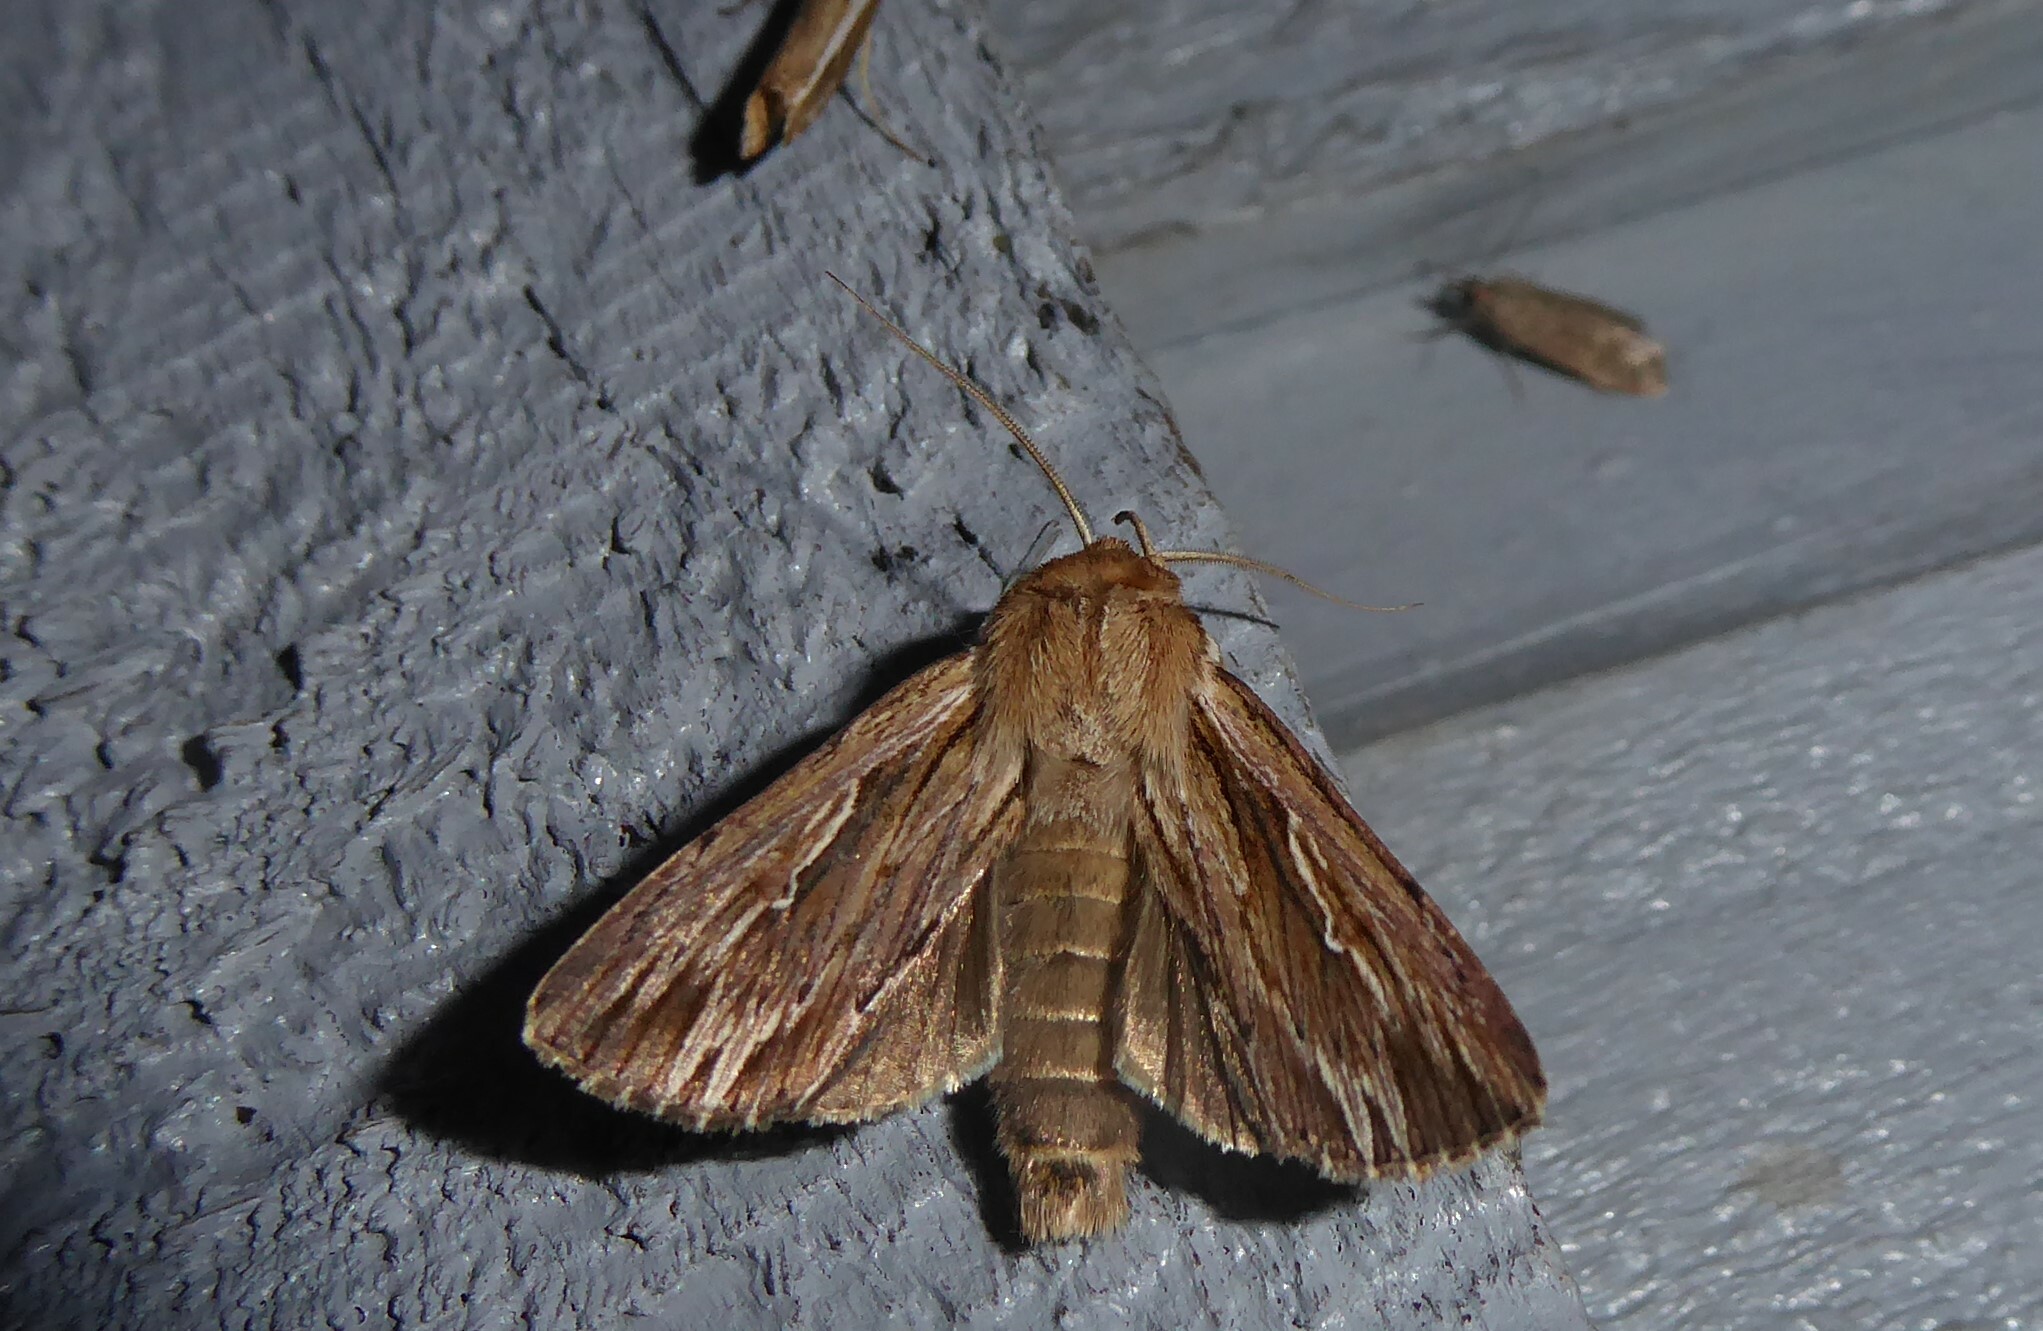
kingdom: Animalia
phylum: Arthropoda
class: Insecta
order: Lepidoptera
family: Noctuidae
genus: Persectania
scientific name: Persectania aversa
